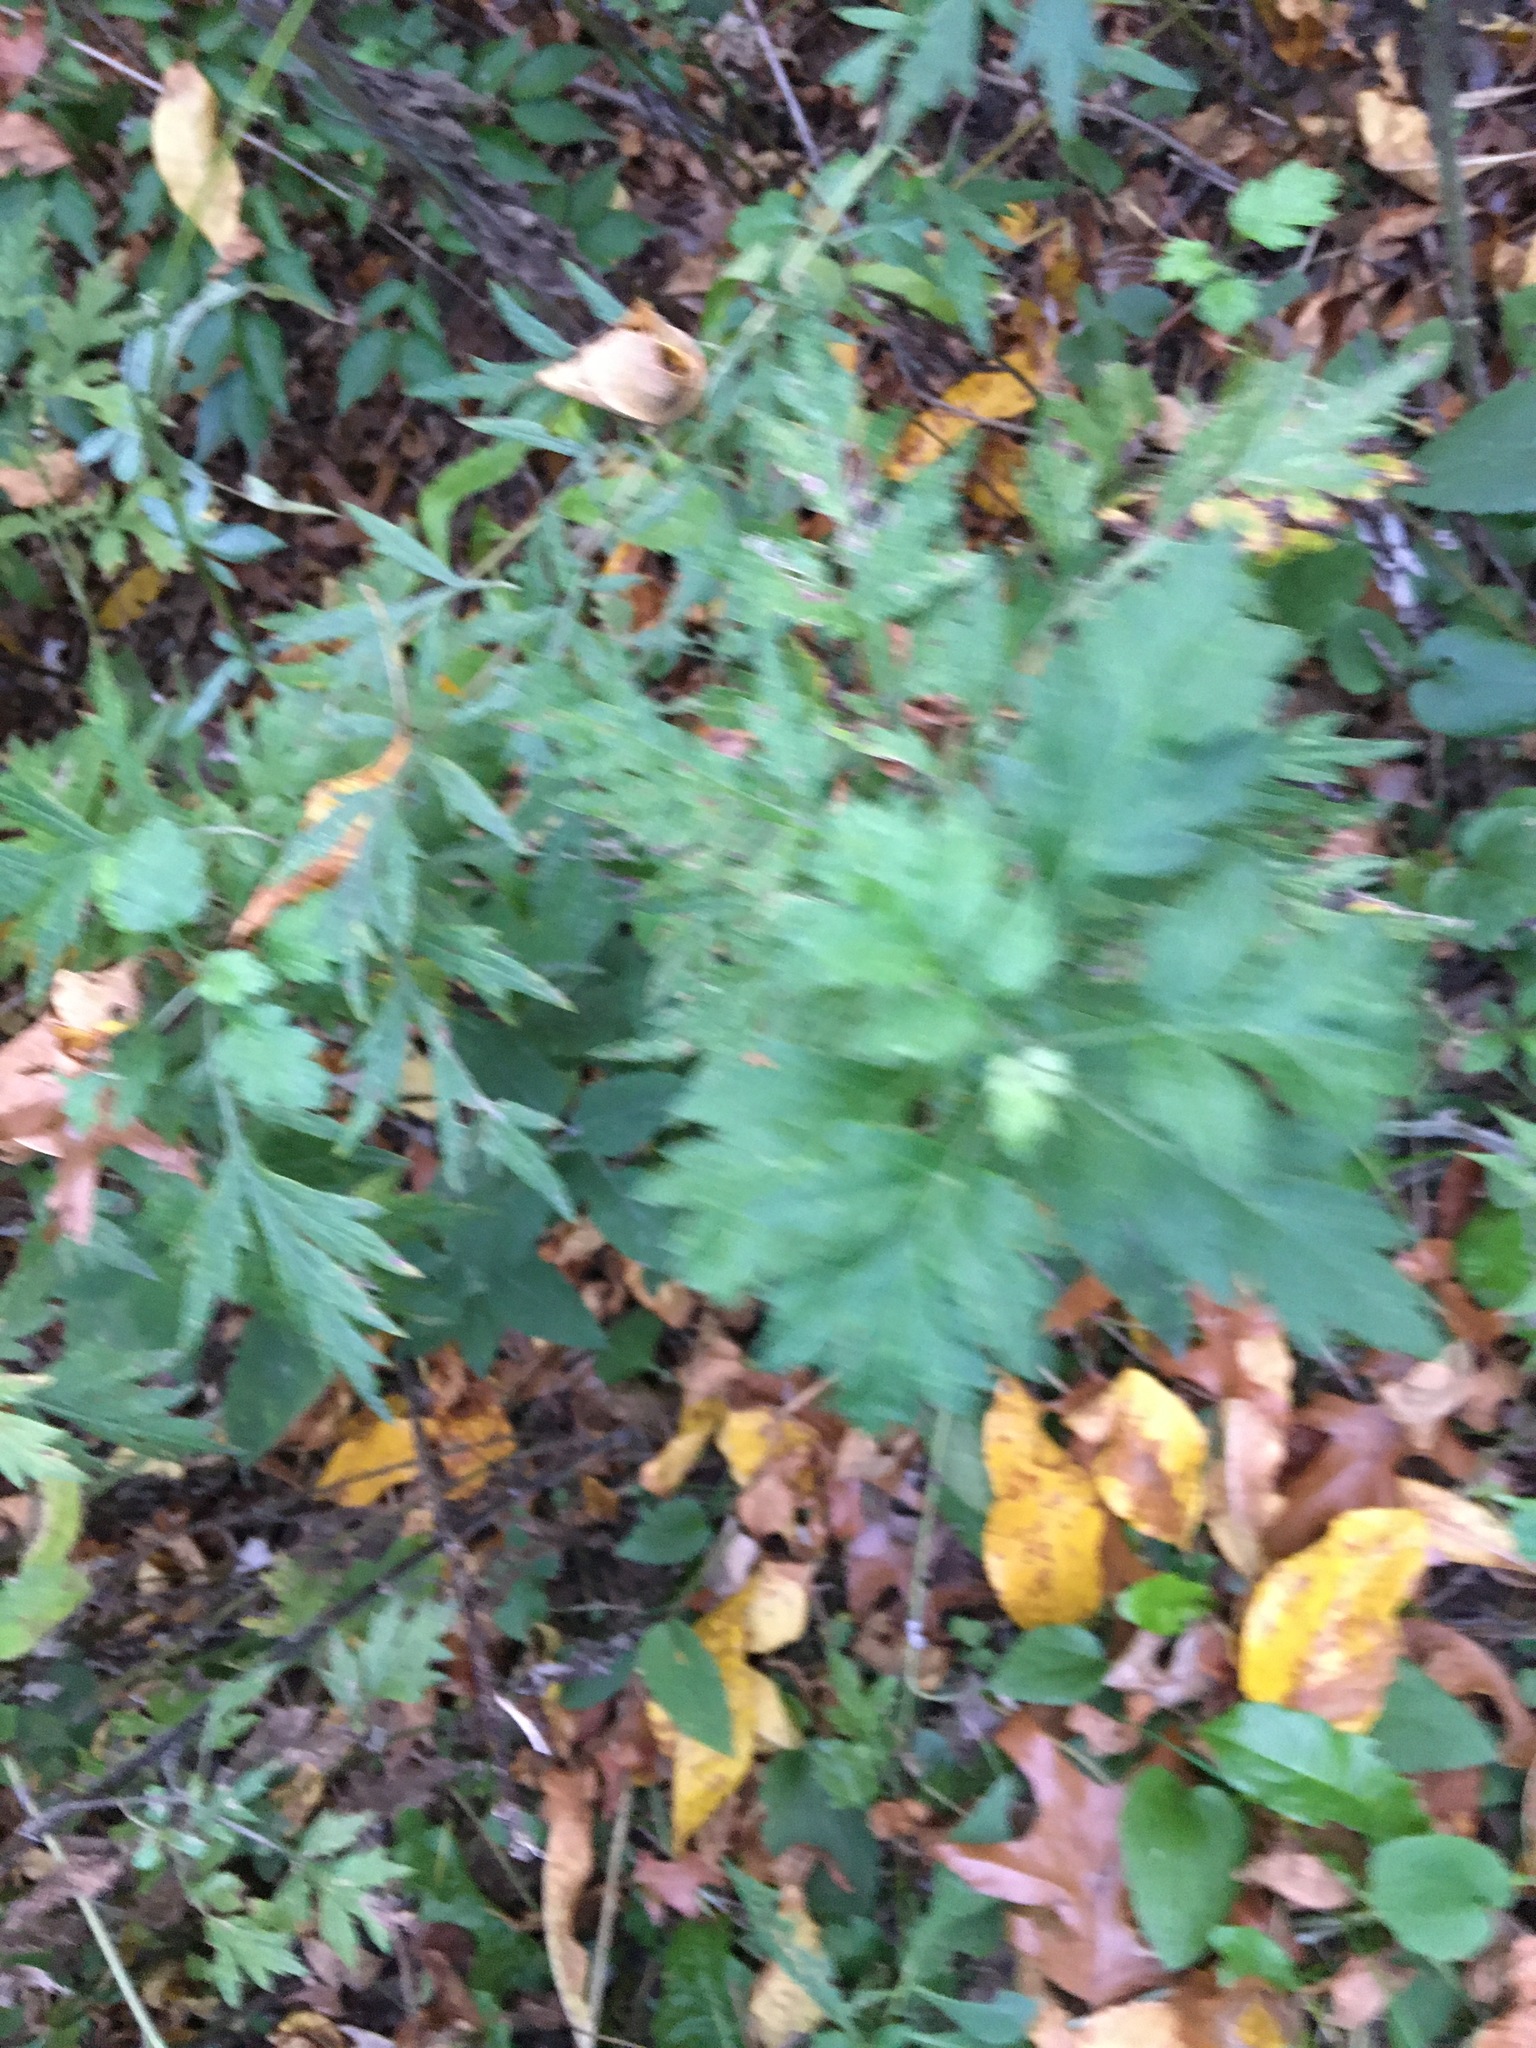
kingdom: Plantae
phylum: Tracheophyta
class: Magnoliopsida
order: Asterales
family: Asteraceae
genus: Artemisia
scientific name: Artemisia vulgaris
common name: Mugwort
